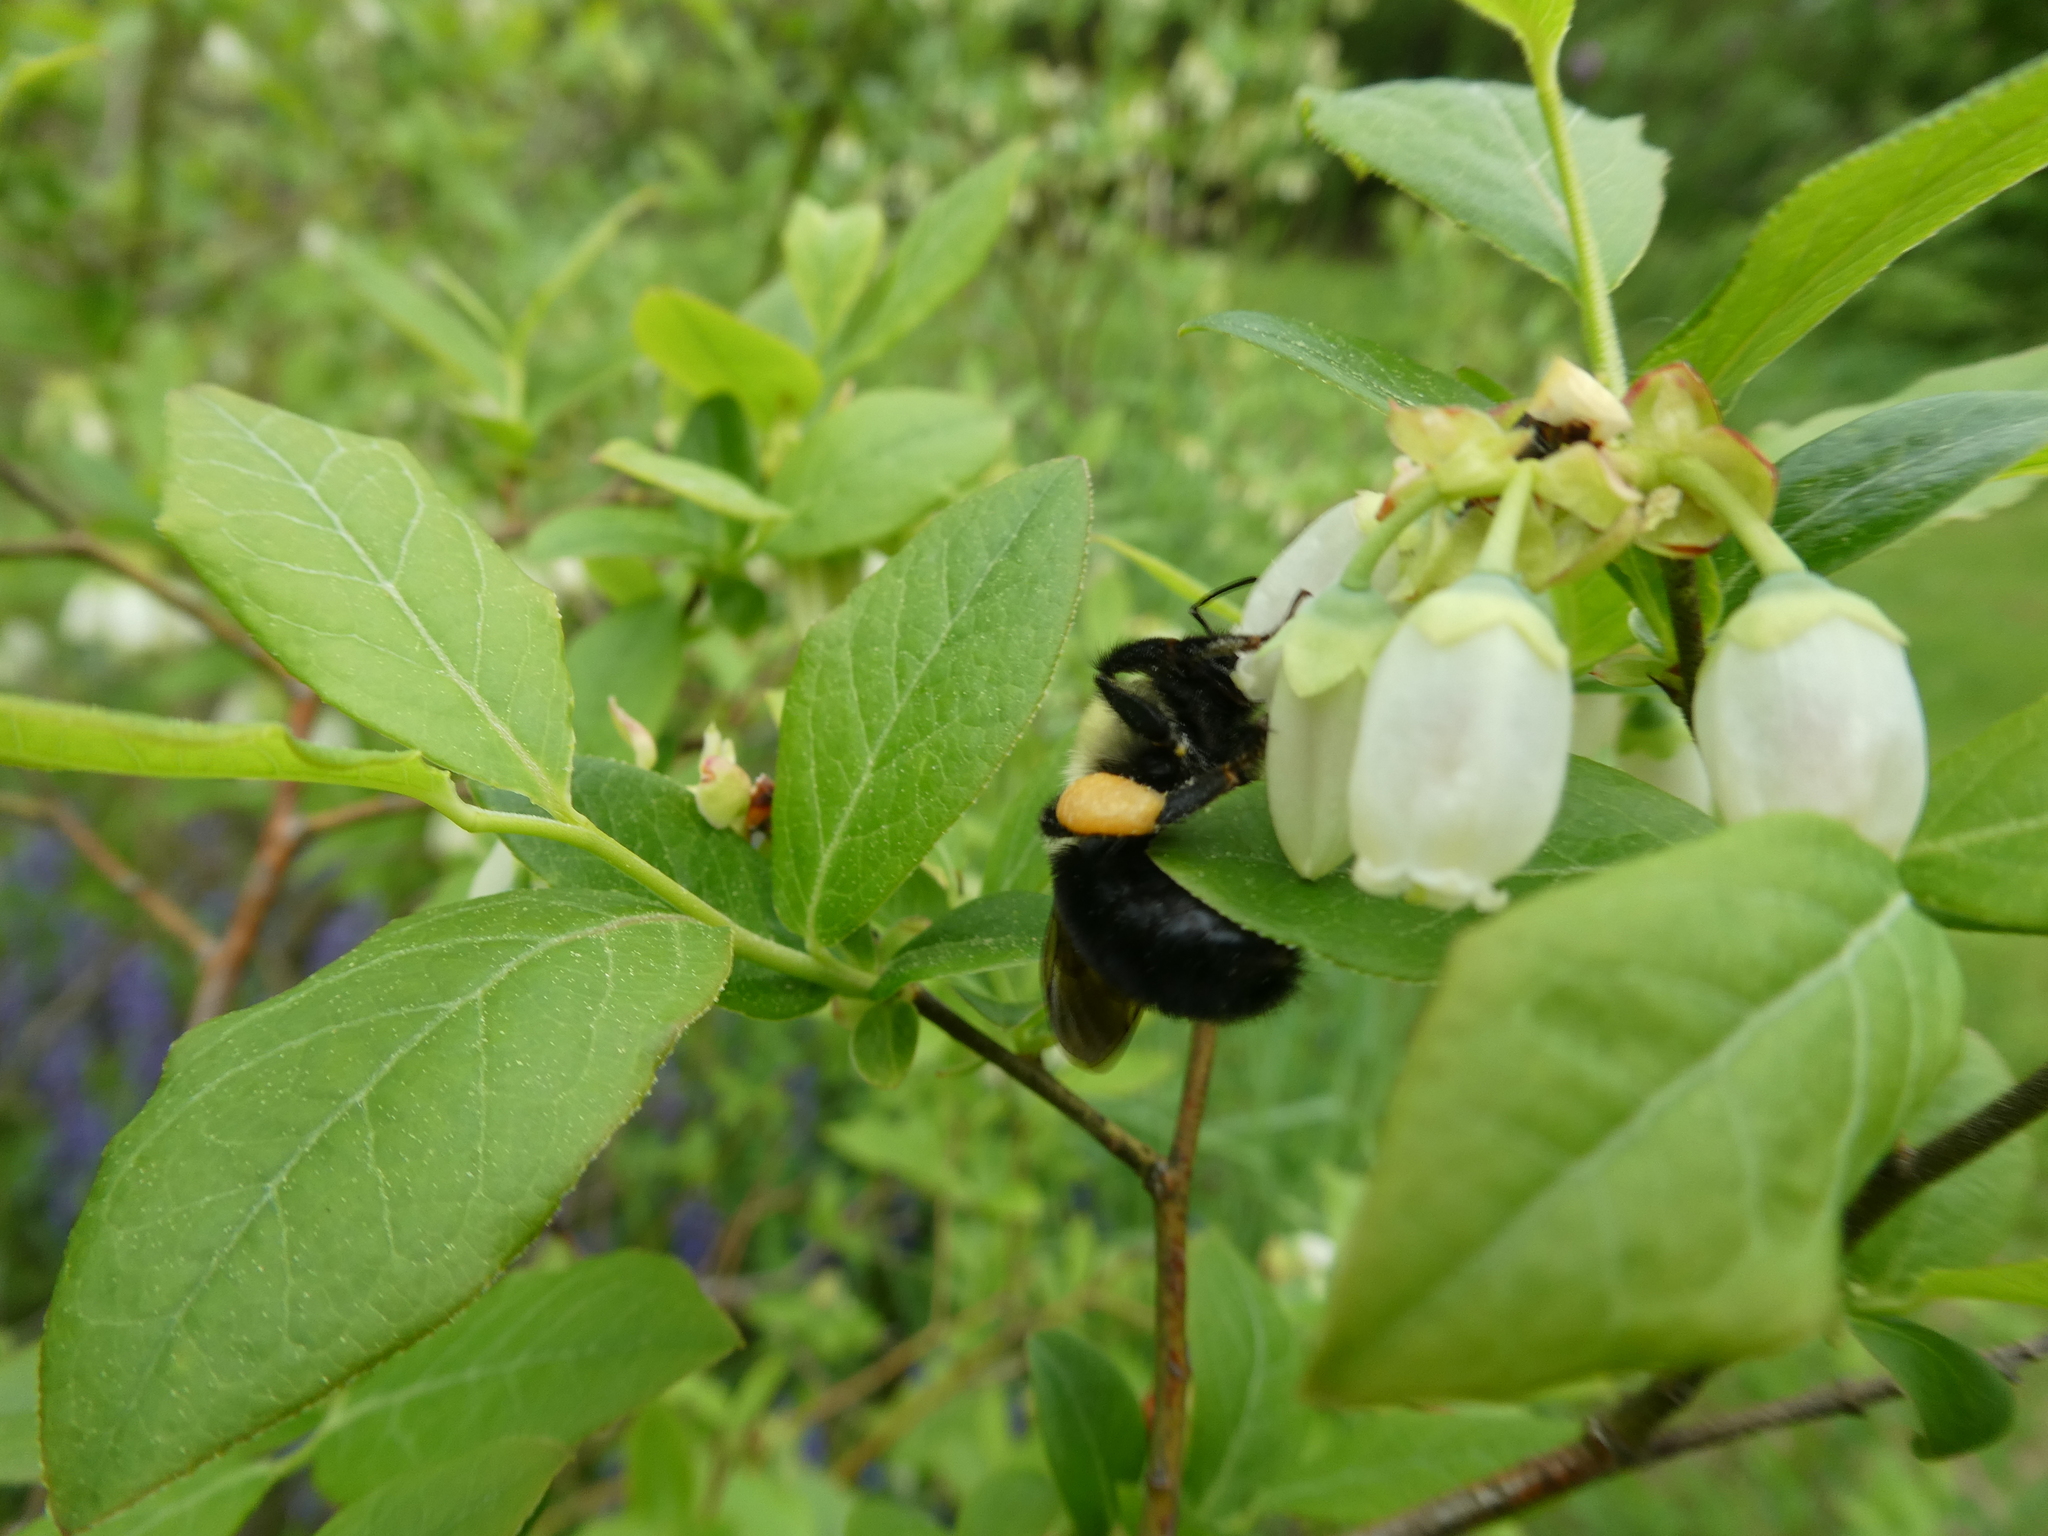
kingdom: Animalia
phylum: Arthropoda
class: Insecta
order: Hymenoptera
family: Apidae
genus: Bombus
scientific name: Bombus impatiens
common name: Common eastern bumble bee
